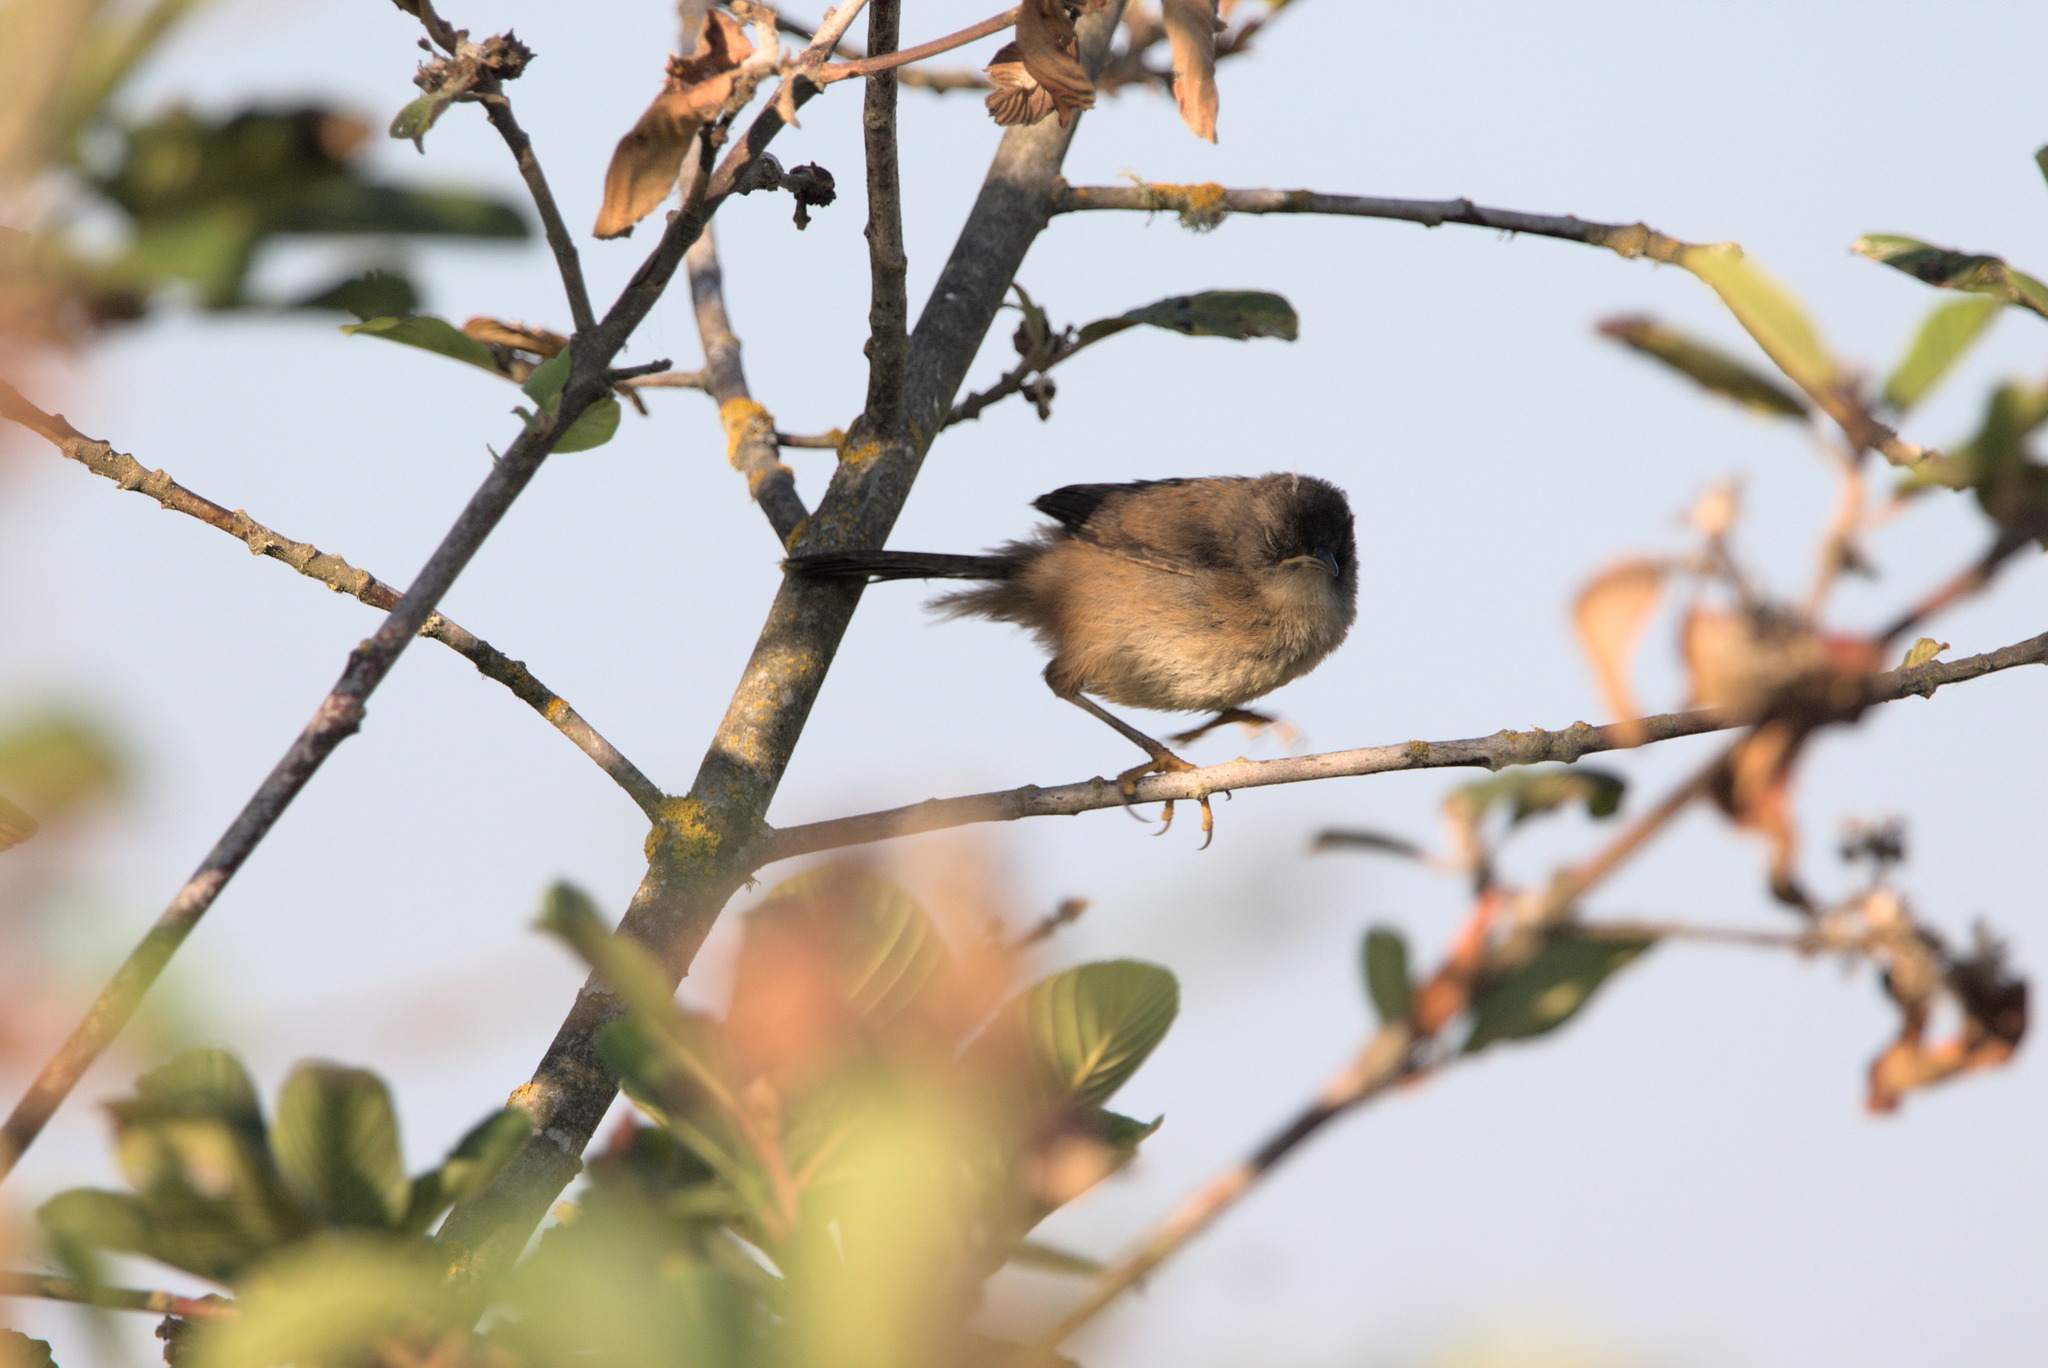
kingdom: Animalia
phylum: Chordata
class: Aves
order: Passeriformes
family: Troglodytidae
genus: Troglodytes
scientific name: Troglodytes aedon
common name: House wren
